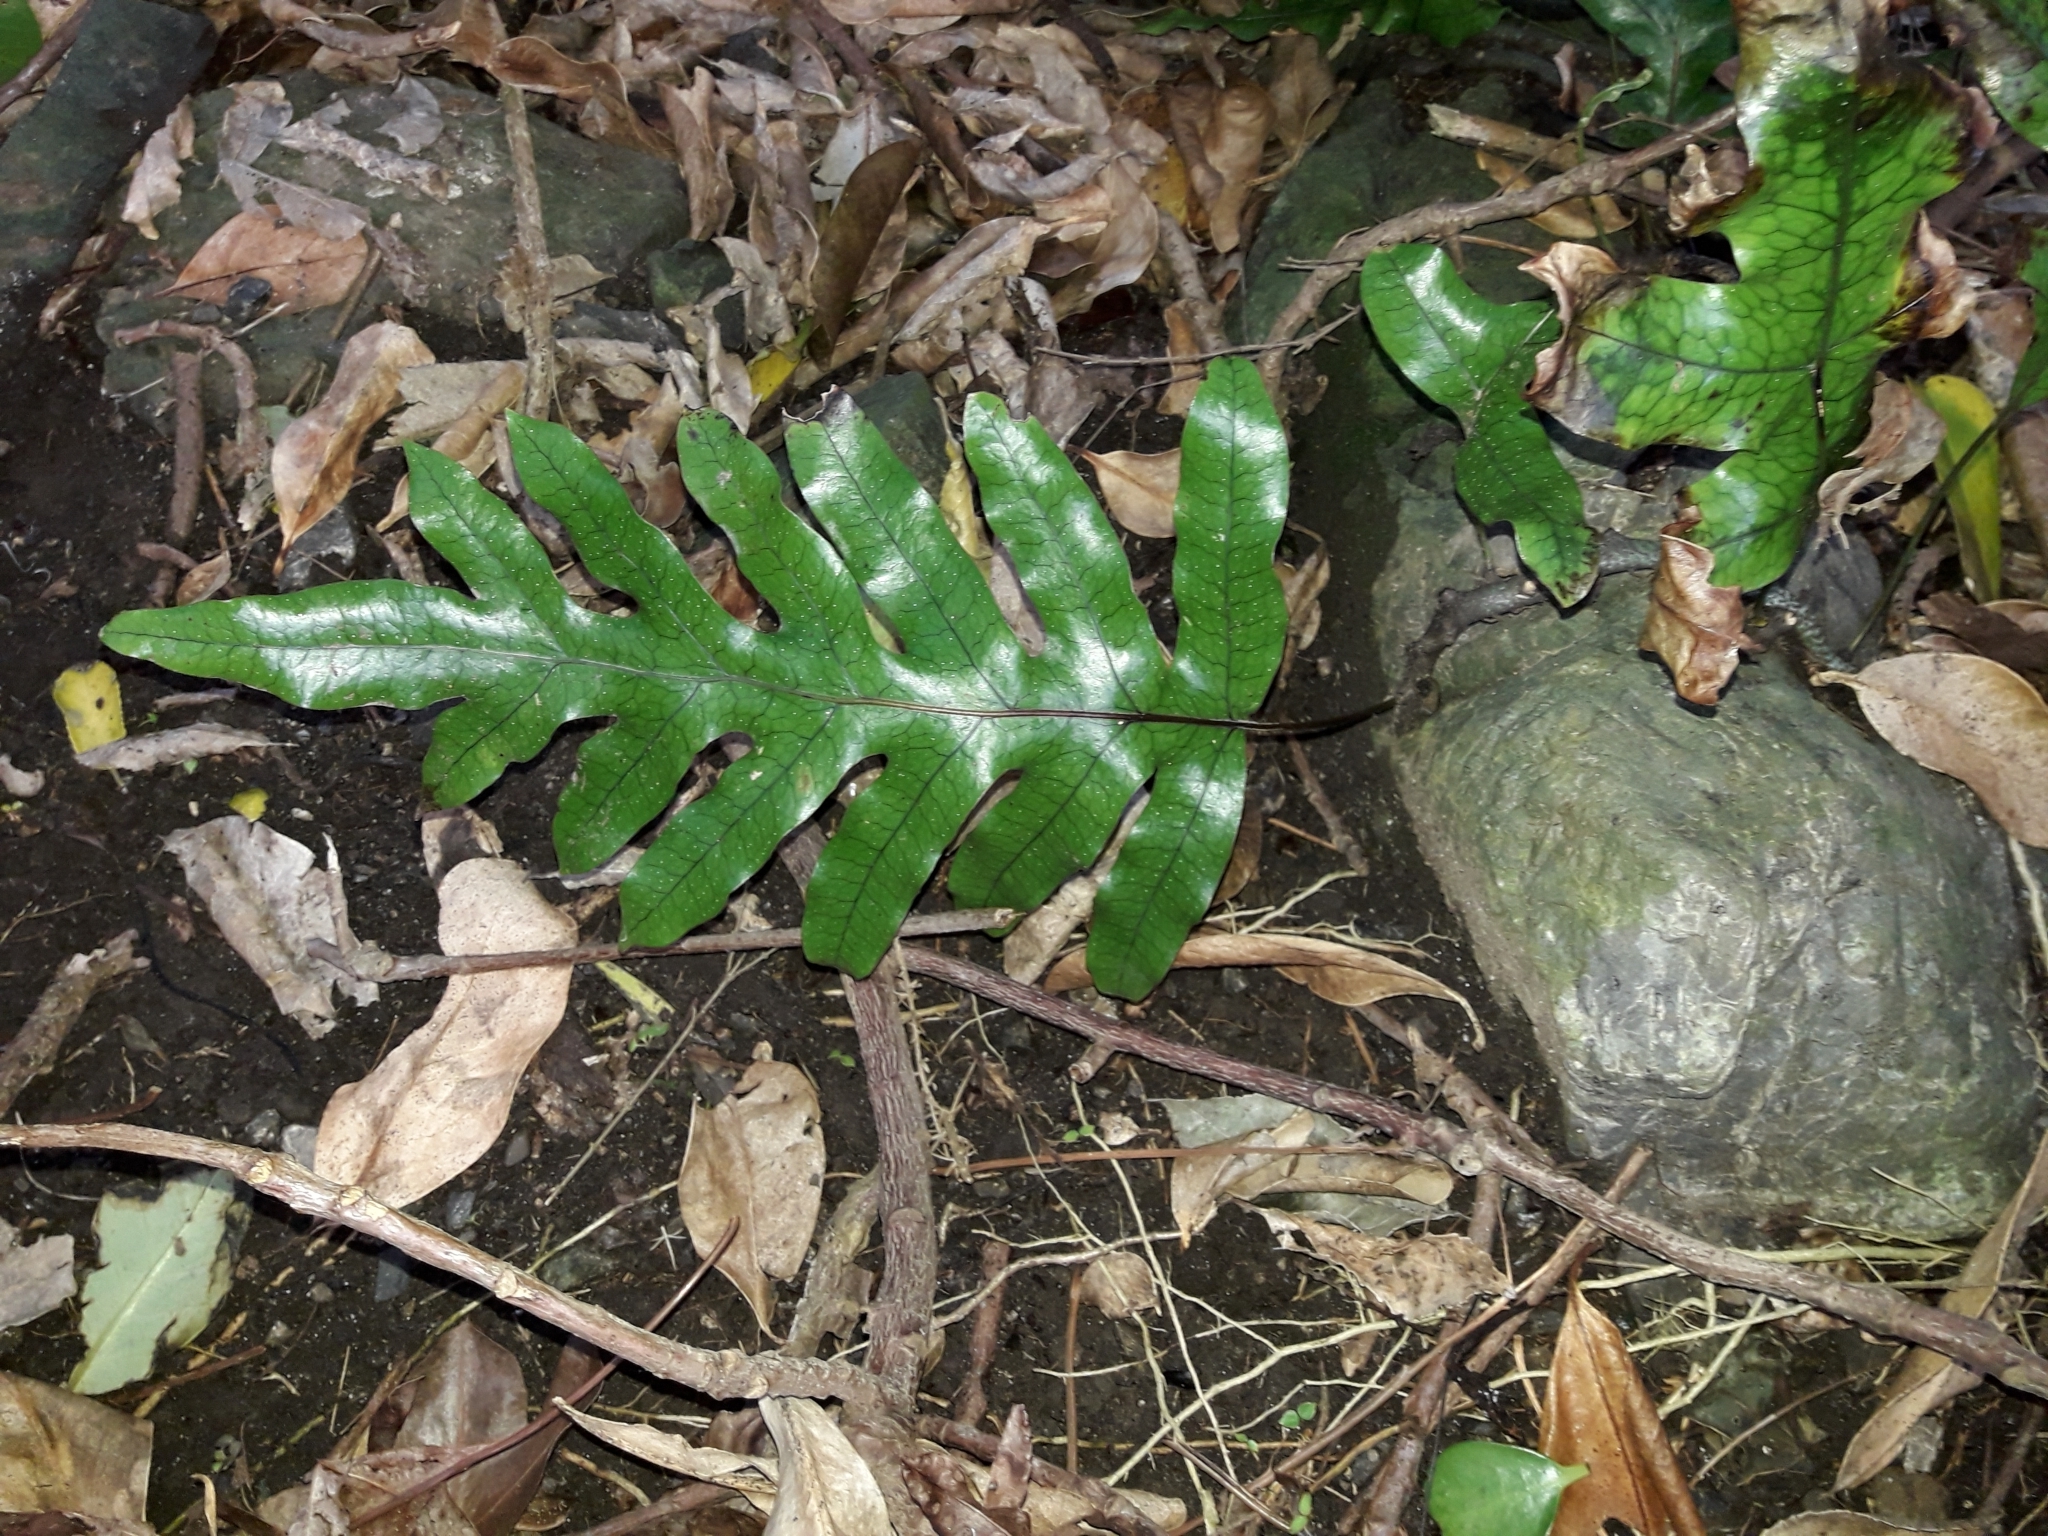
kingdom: Plantae
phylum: Tracheophyta
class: Polypodiopsida
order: Polypodiales
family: Polypodiaceae
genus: Lecanopteris
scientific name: Lecanopteris pustulata
